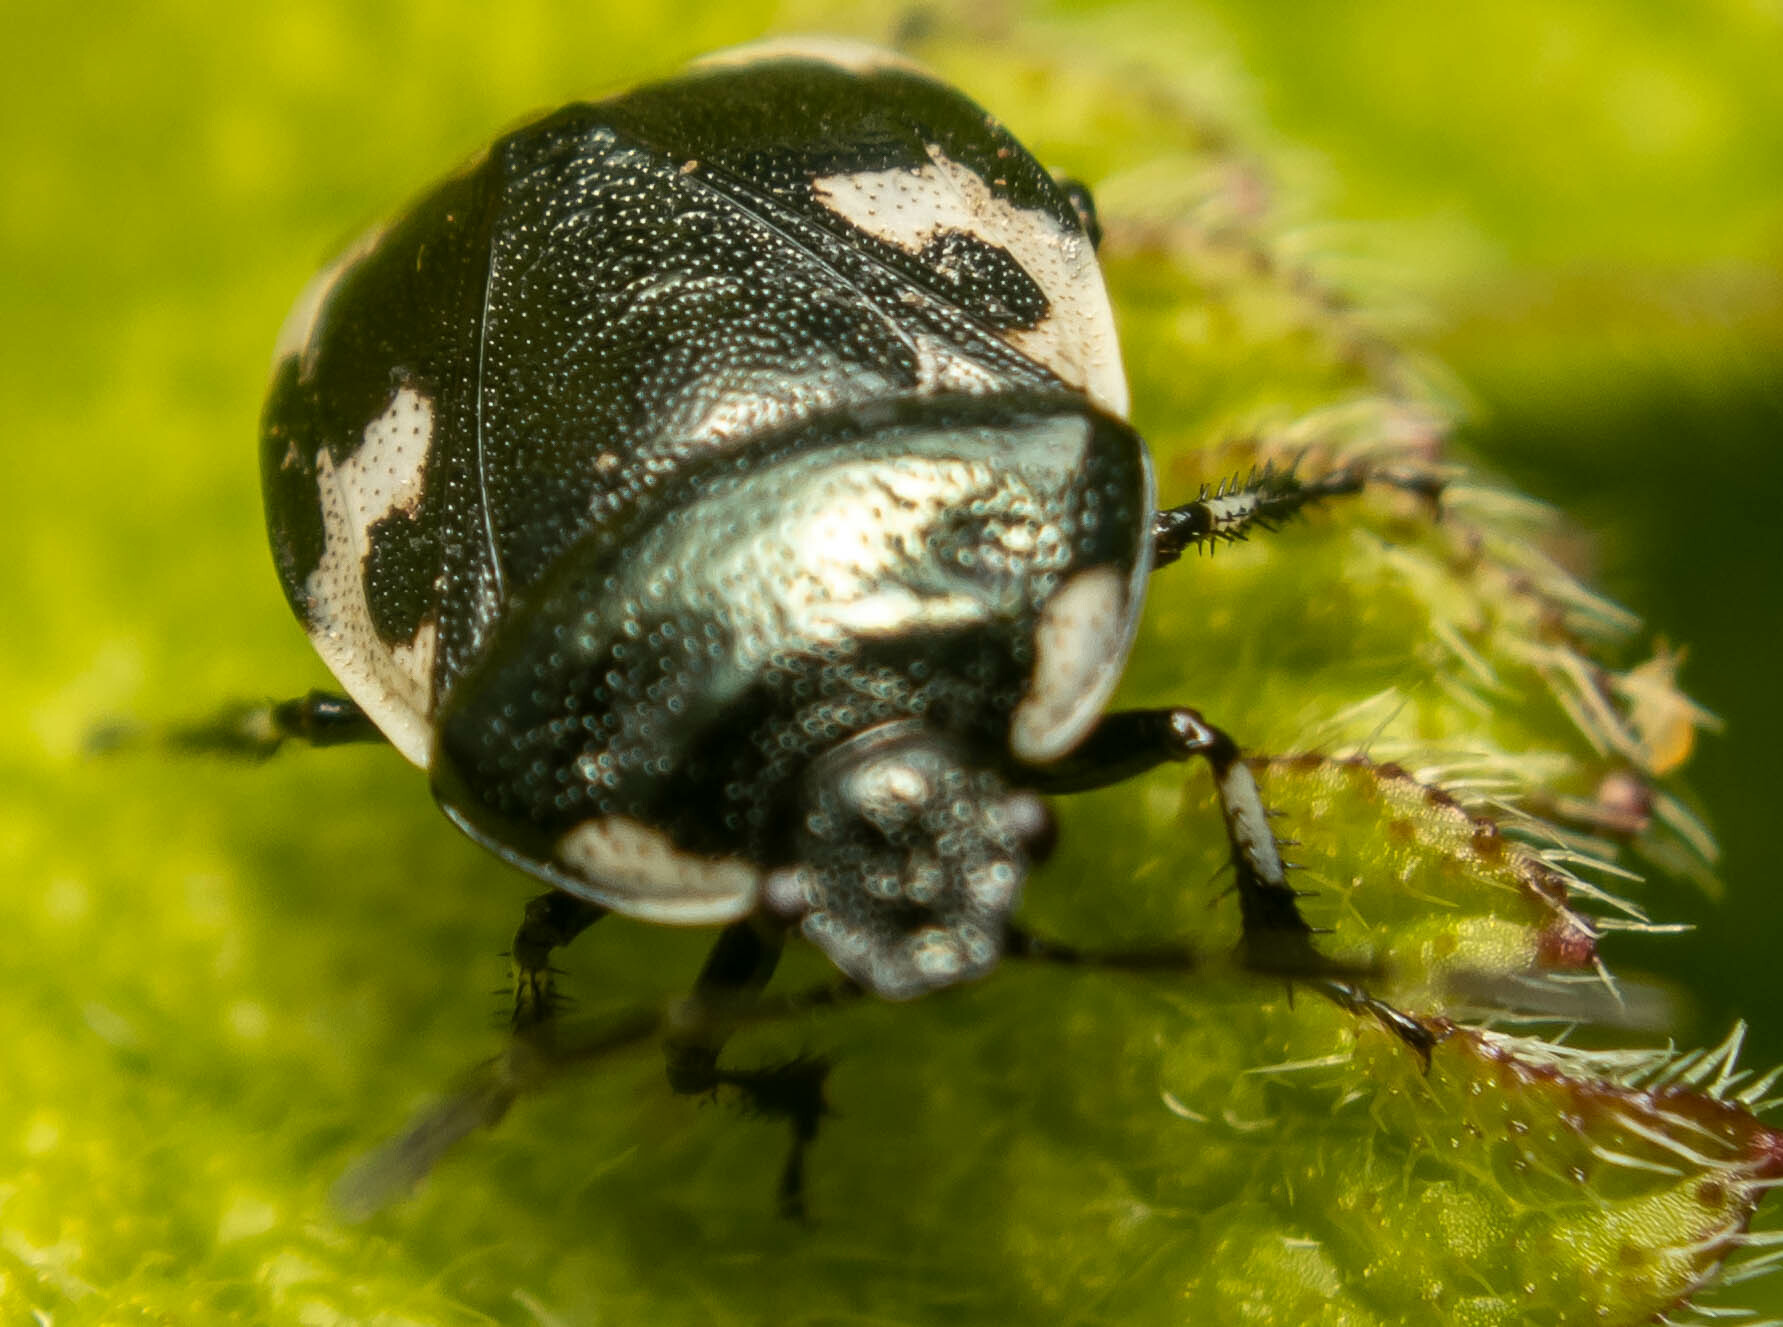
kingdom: Animalia
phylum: Arthropoda
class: Insecta
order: Hemiptera
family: Cydnidae
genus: Tritomegas
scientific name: Tritomegas bicolor
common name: Pied shieldbug
